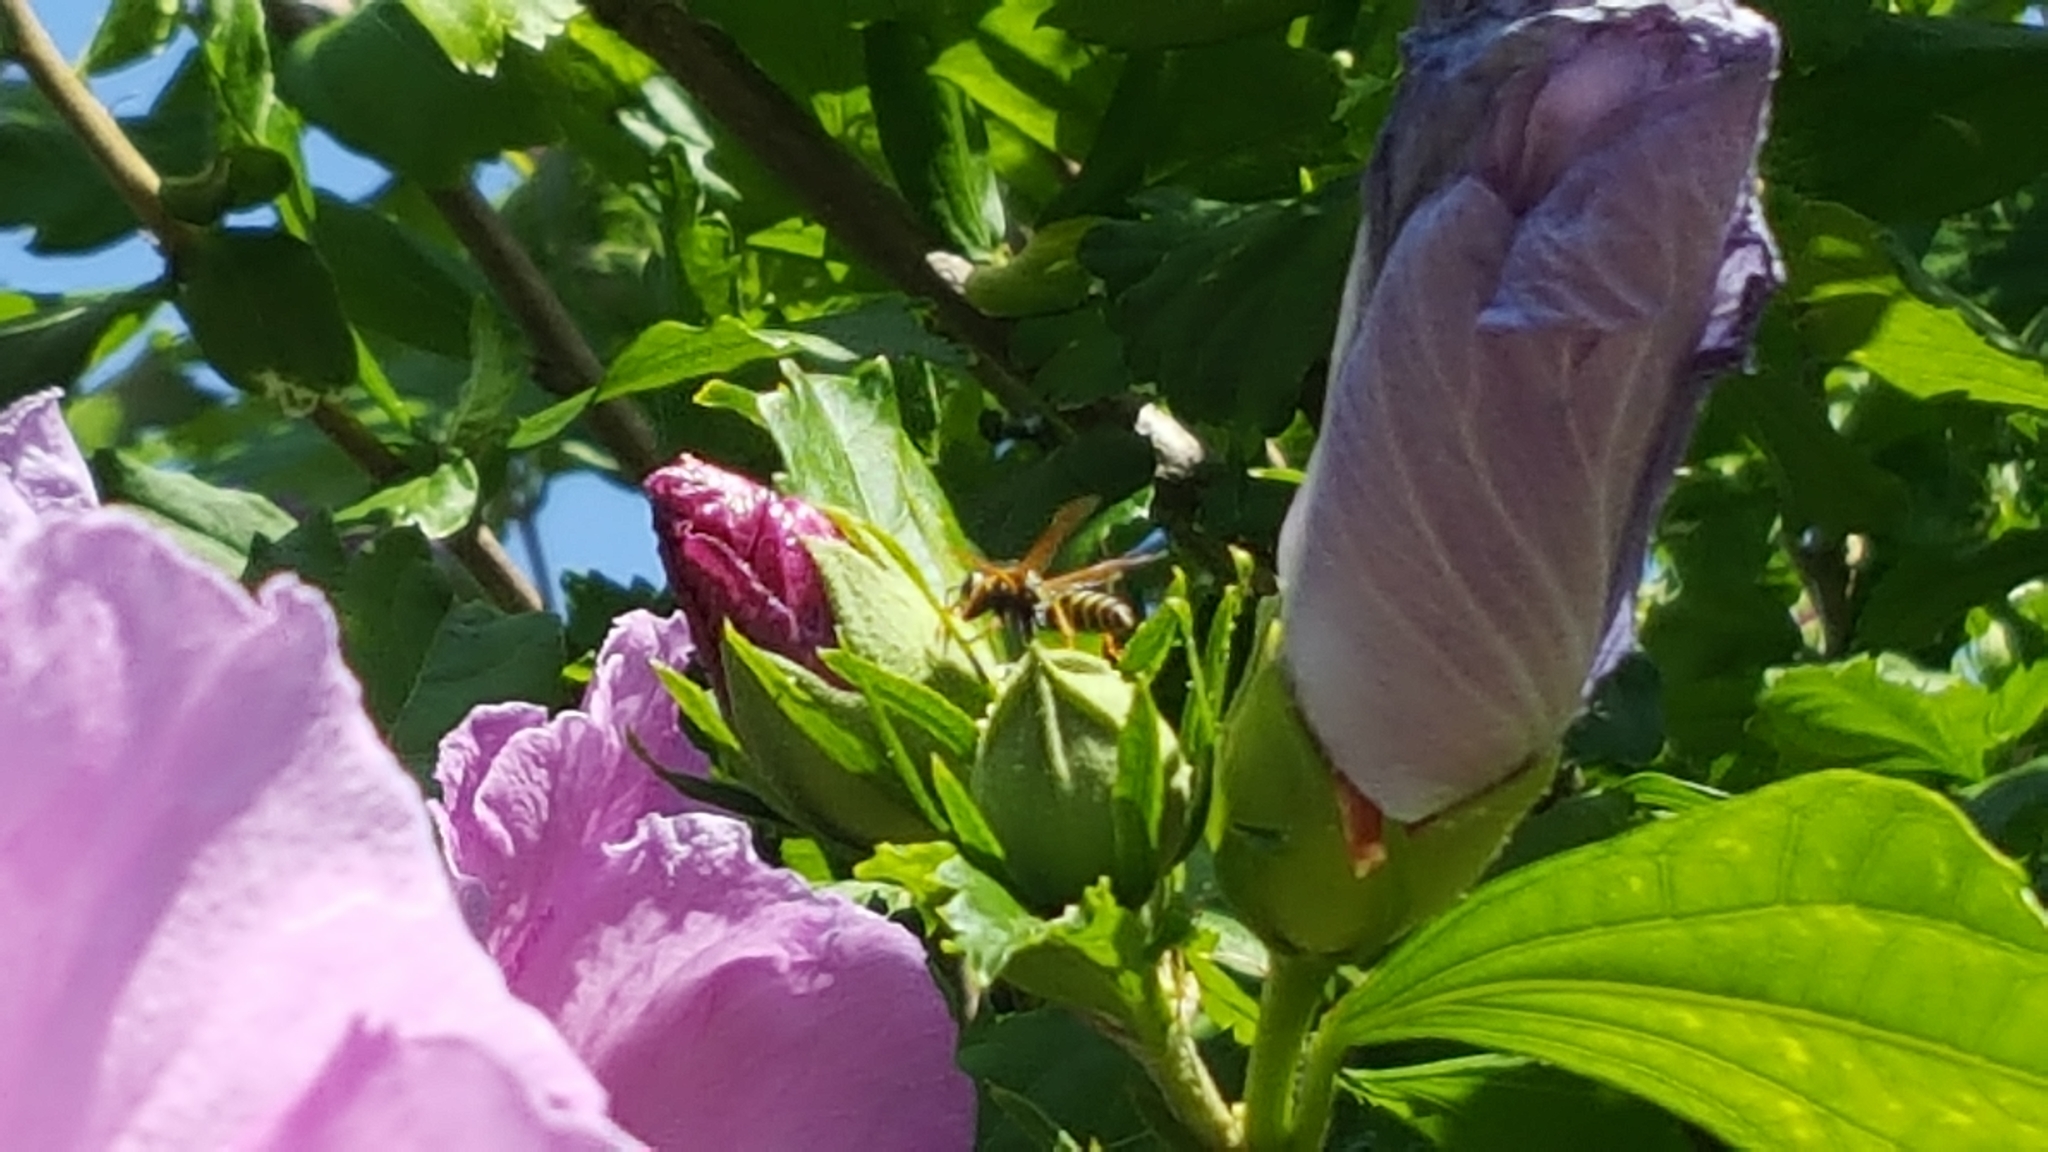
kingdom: Animalia
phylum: Arthropoda
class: Insecta
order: Hymenoptera
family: Eumenidae
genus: Polistes
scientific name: Polistes dominula
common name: Paper wasp
